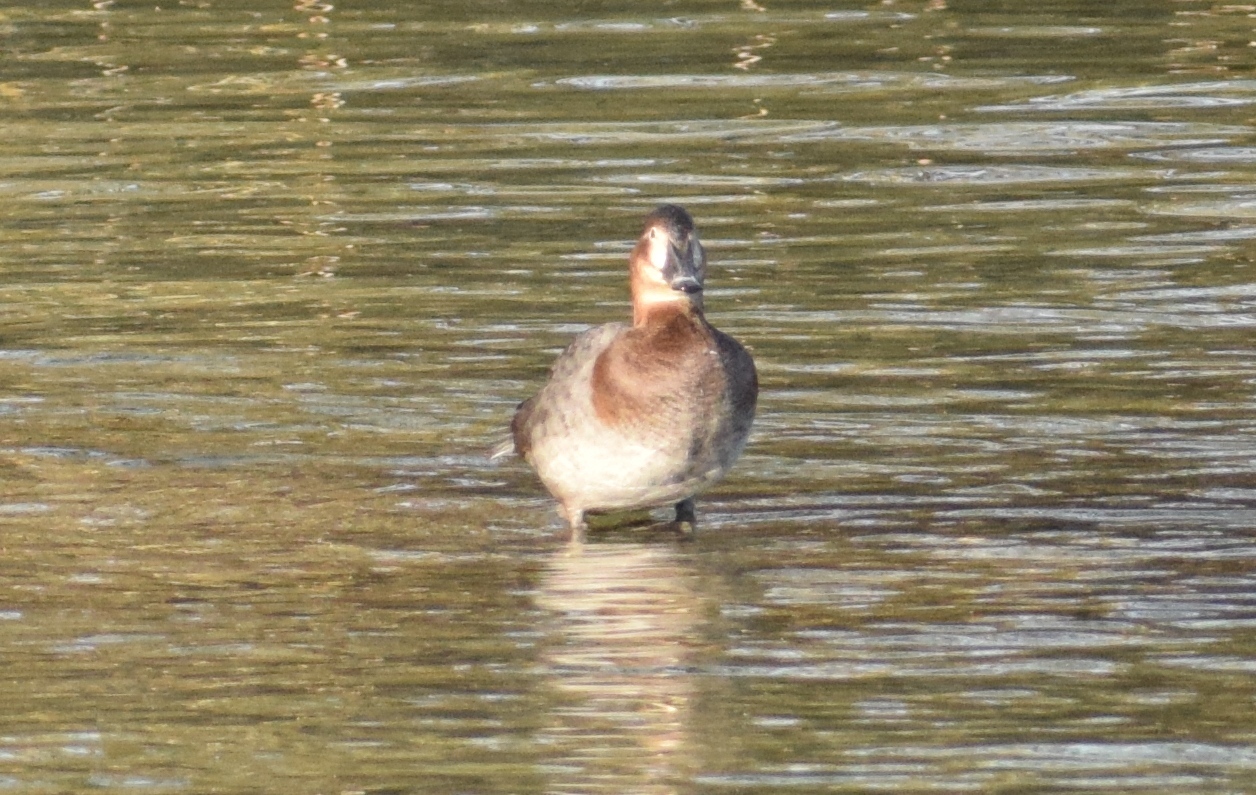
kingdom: Animalia
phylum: Chordata
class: Aves
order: Anseriformes
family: Anatidae
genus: Aythya
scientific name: Aythya ferina
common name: Common pochard
